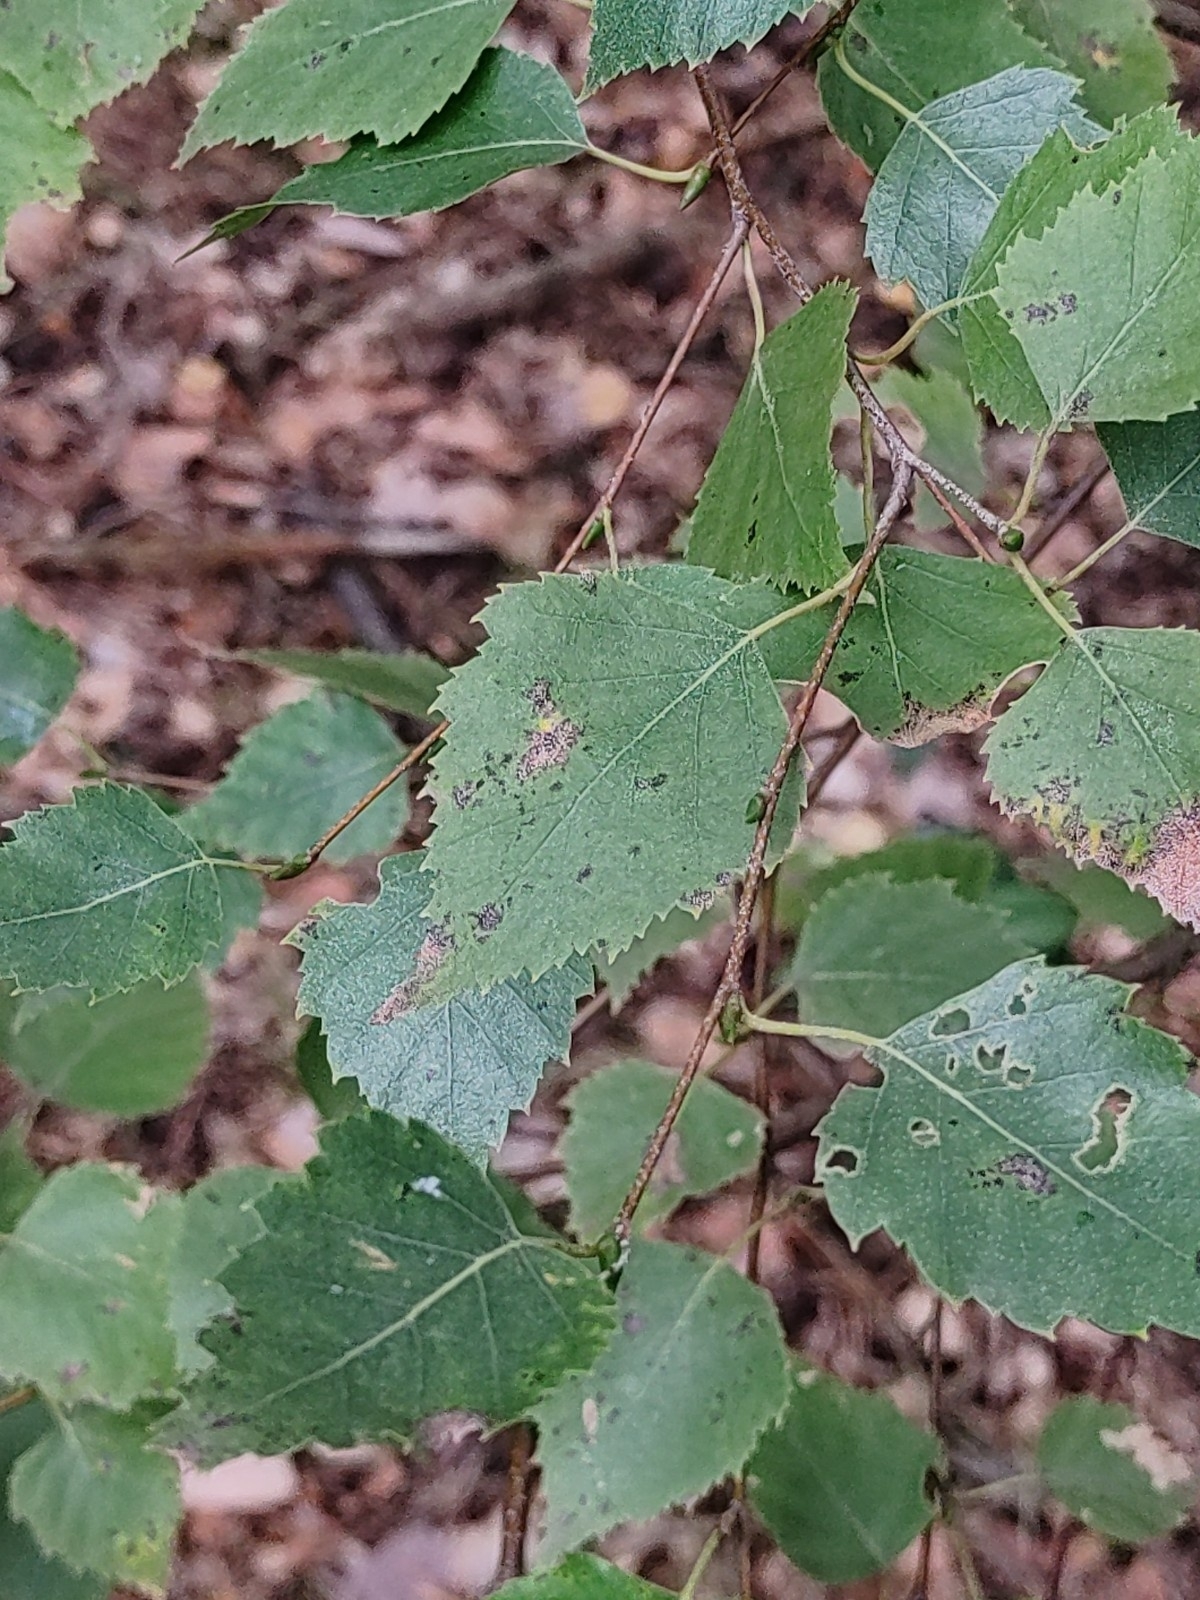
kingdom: Plantae
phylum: Tracheophyta
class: Magnoliopsida
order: Fagales
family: Betulaceae
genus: Betula
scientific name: Betula pendula
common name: Silver birch
